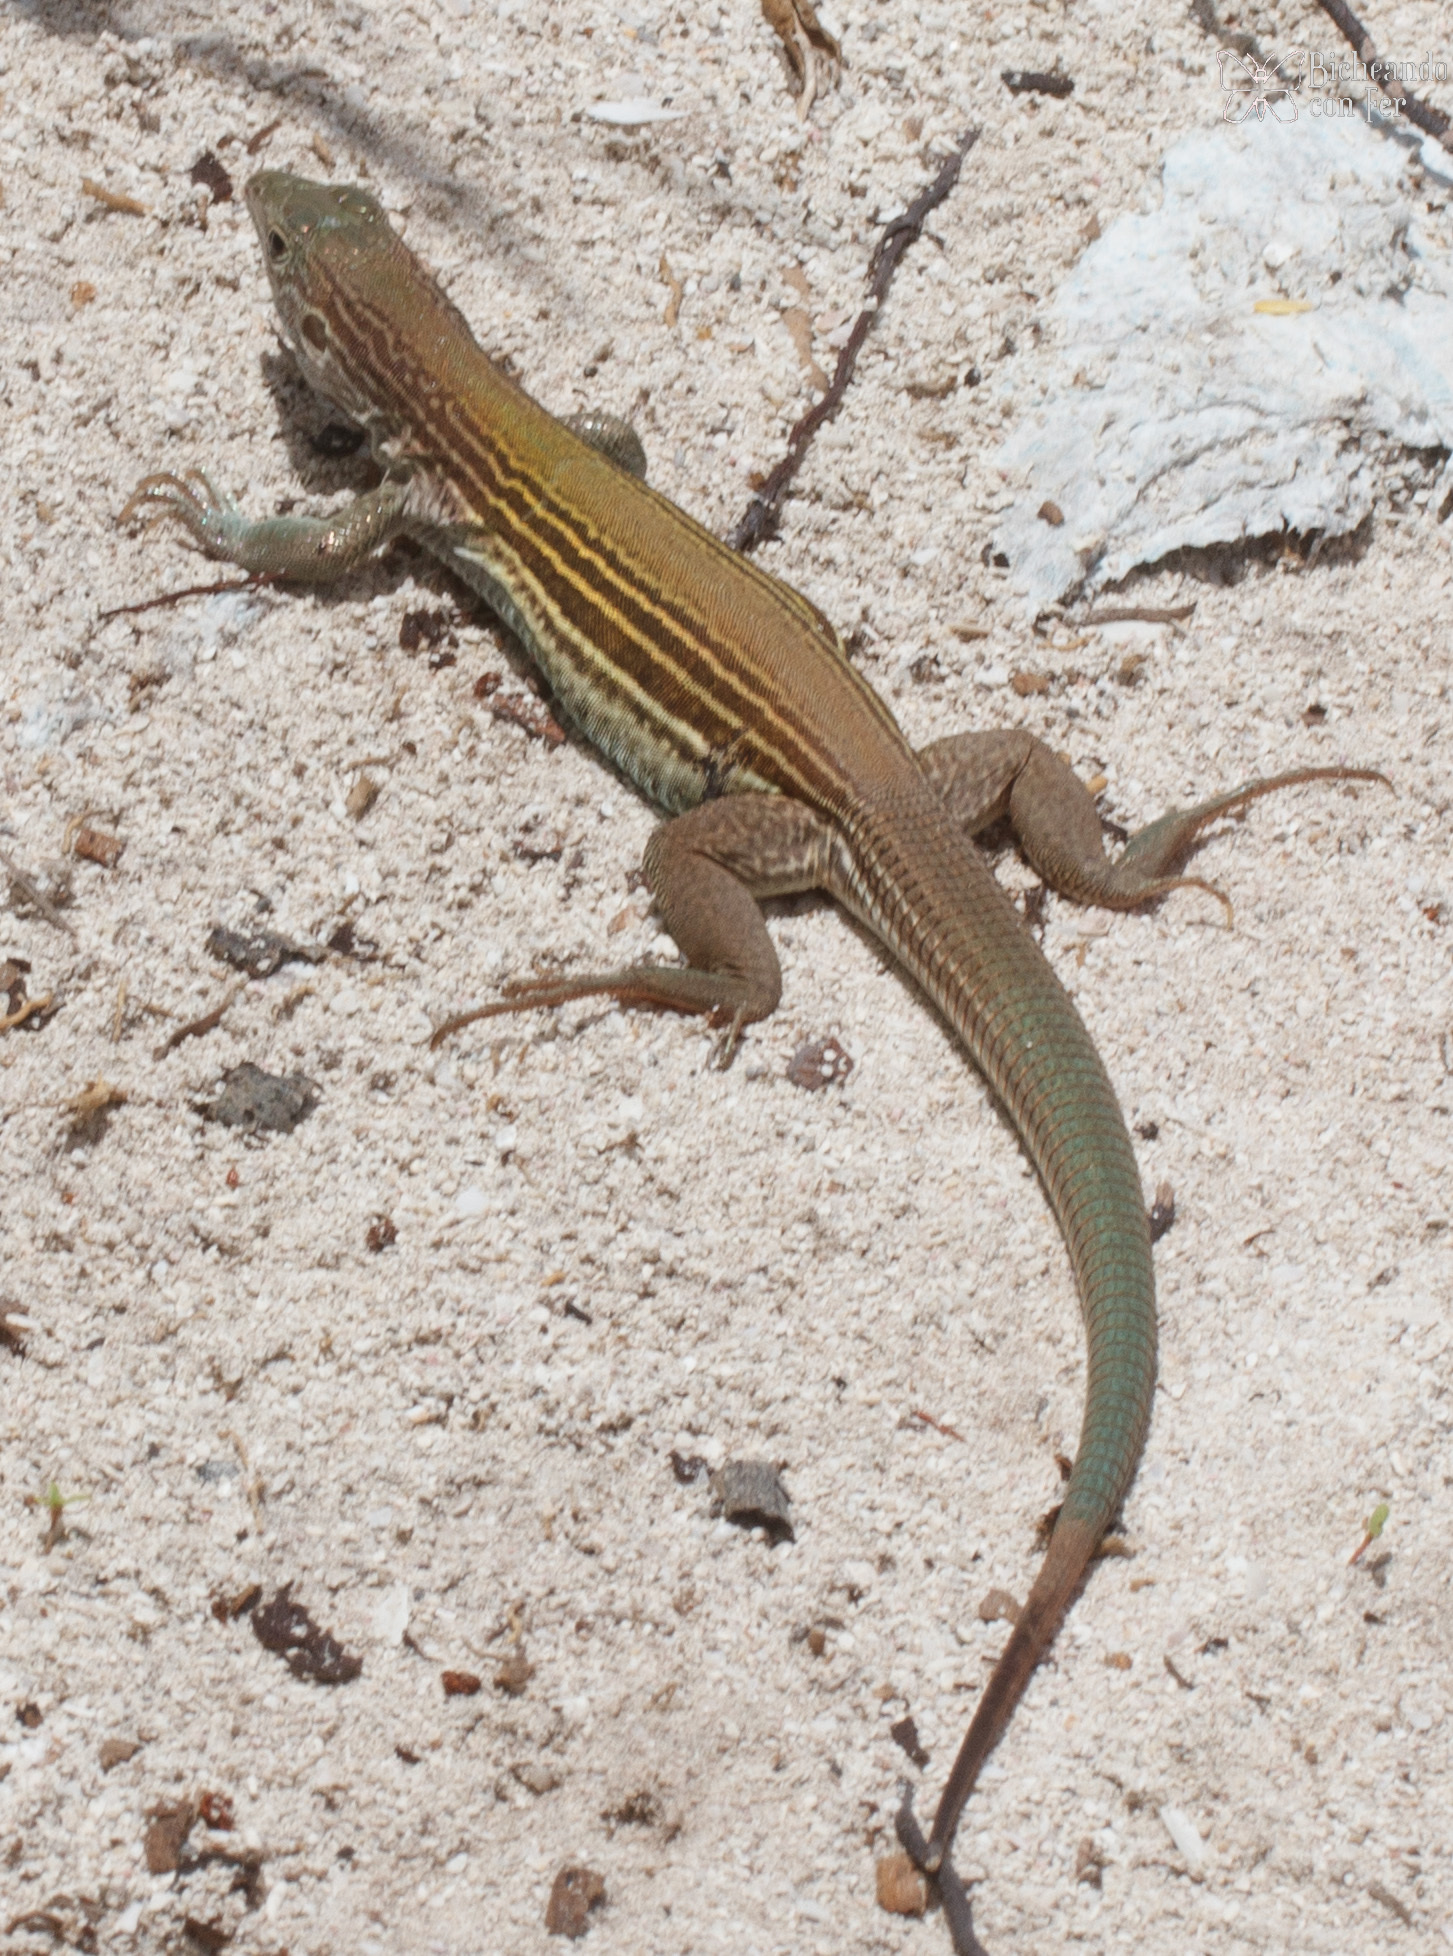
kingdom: Animalia
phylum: Chordata
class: Squamata
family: Teiidae
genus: Aspidoscelis
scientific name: Aspidoscelis angusticeps
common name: Yucatan whiptail
